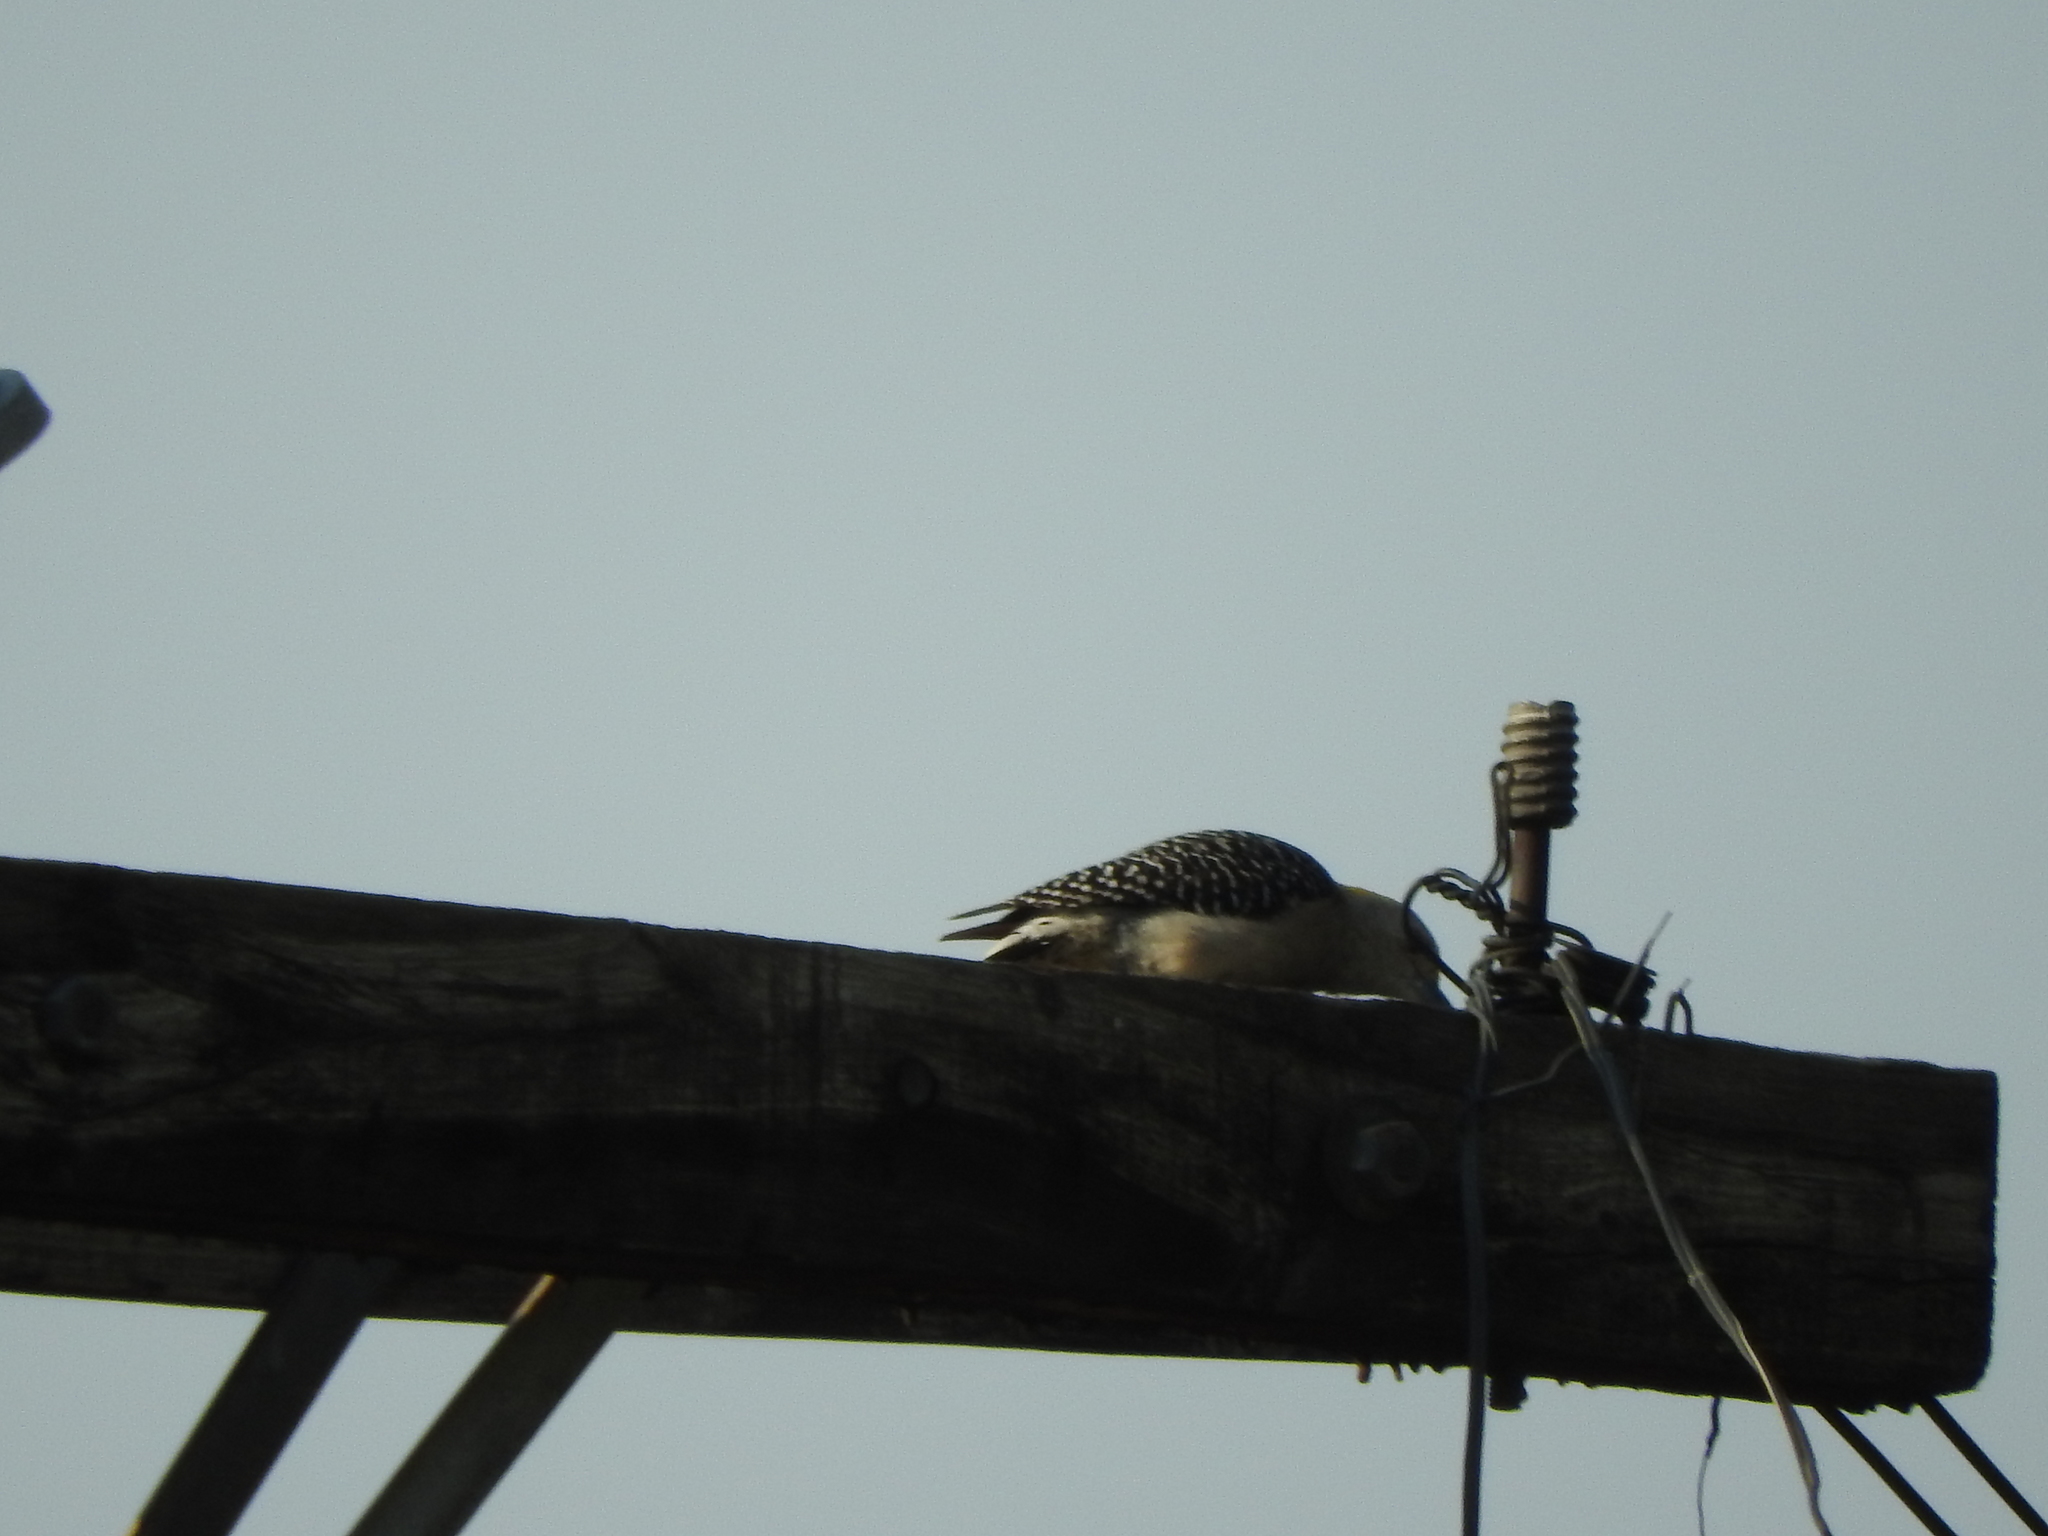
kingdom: Animalia
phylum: Chordata
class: Aves
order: Piciformes
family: Picidae
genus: Melanerpes
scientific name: Melanerpes aurifrons
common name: Golden-fronted woodpecker
